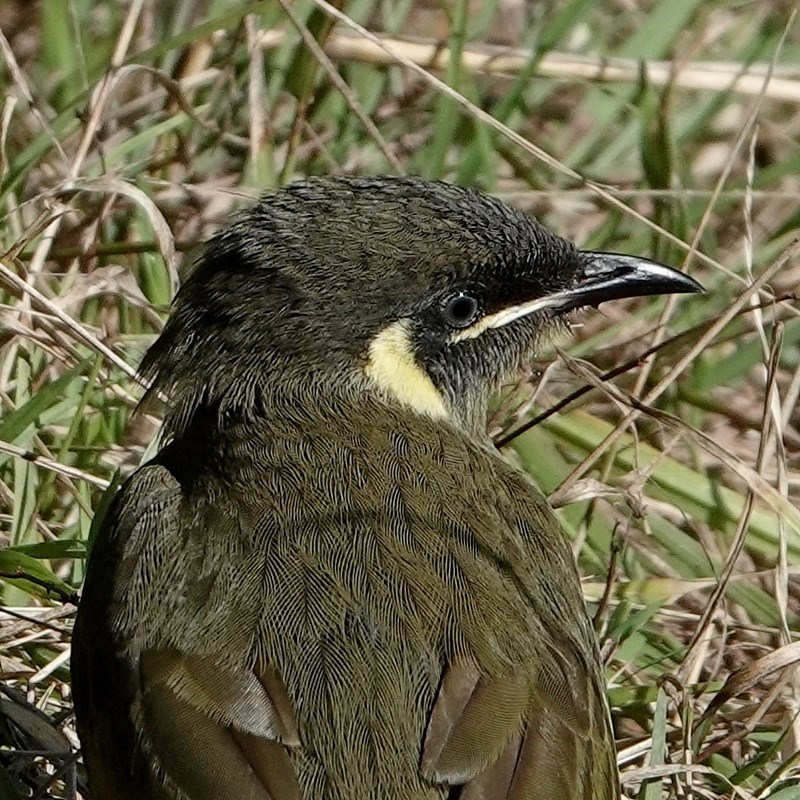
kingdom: Animalia
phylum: Chordata
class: Aves
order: Passeriformes
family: Meliphagidae
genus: Meliphaga
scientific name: Meliphaga lewinii
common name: Lewin's honeyeater
